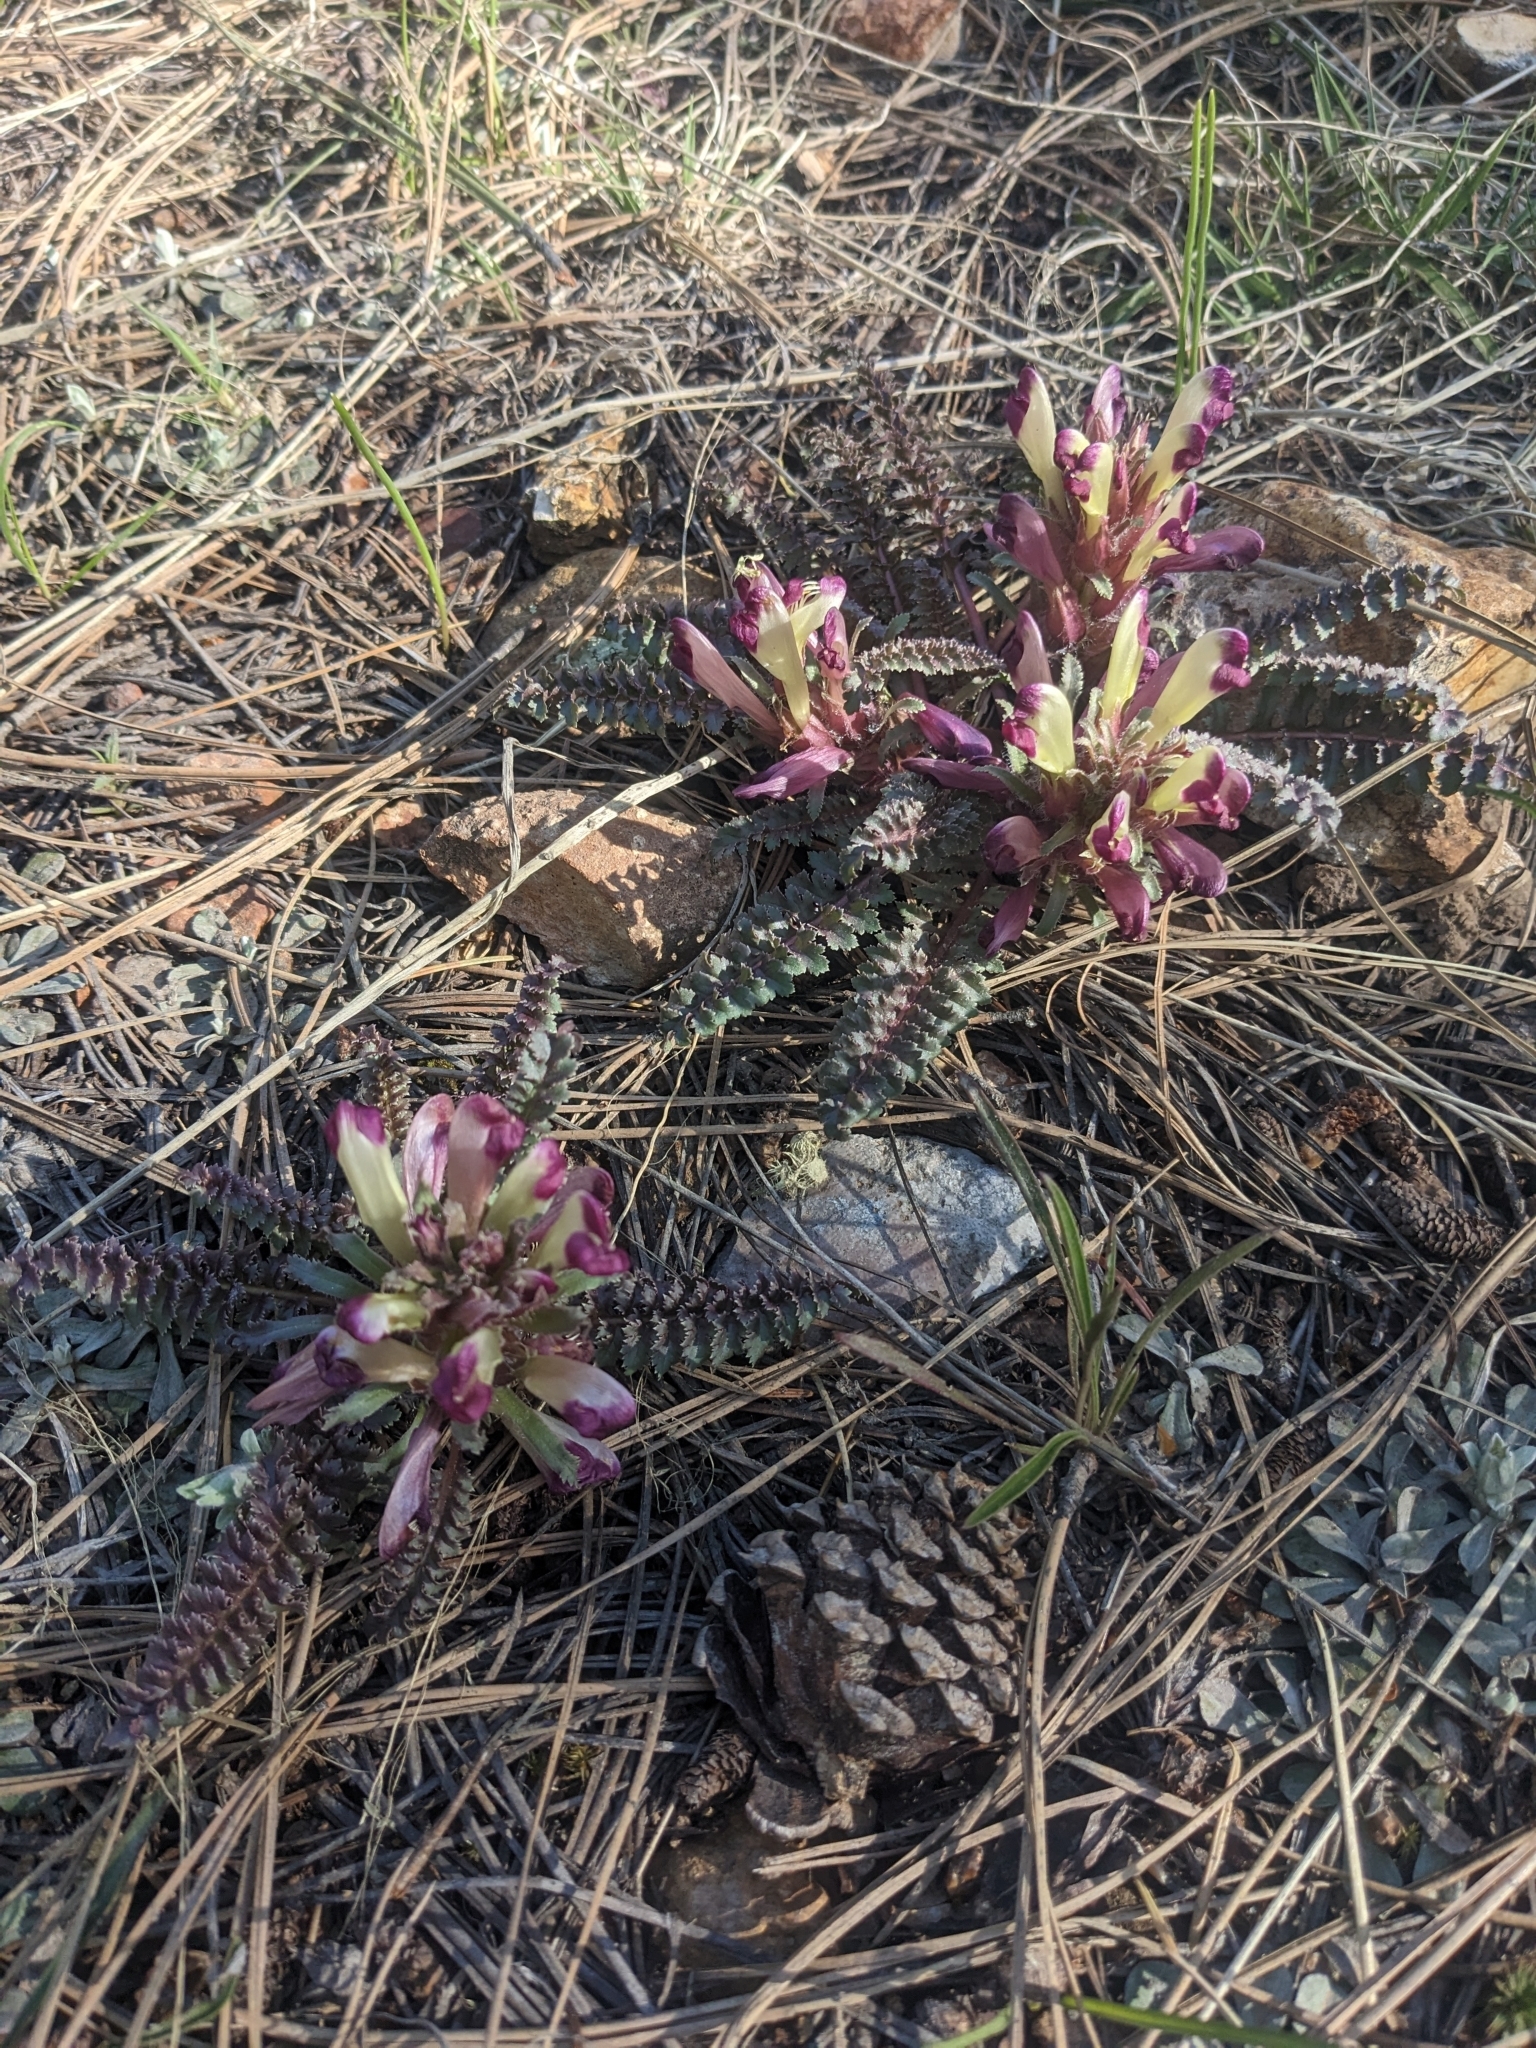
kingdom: Plantae
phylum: Tracheophyta
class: Magnoliopsida
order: Lamiales
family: Orobanchaceae
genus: Pedicularis
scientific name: Pedicularis centranthera
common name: Dwarf lousewort
